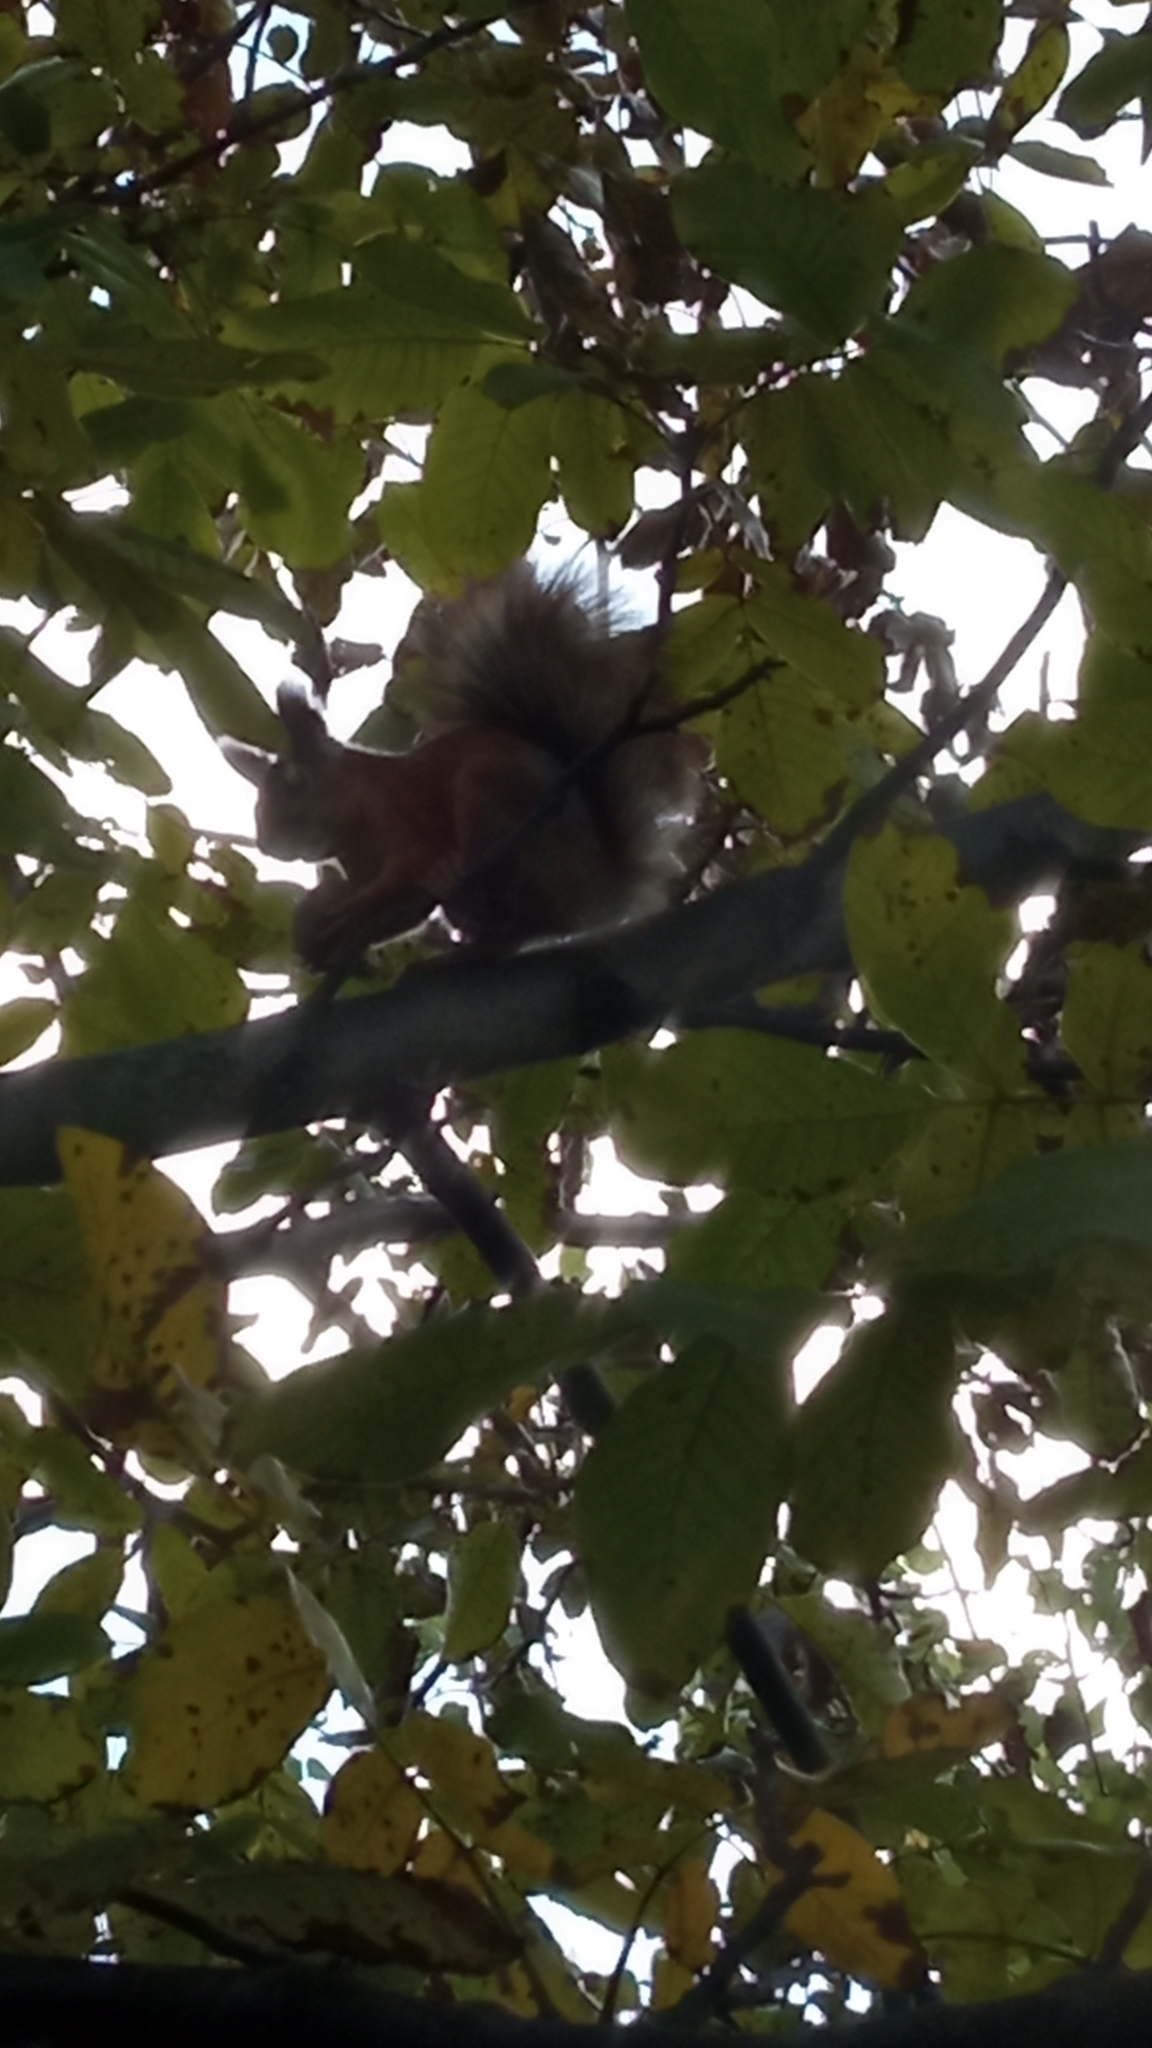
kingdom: Animalia
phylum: Chordata
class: Mammalia
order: Rodentia
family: Sciuridae
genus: Sciurus
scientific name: Sciurus vulgaris
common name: Eurasian red squirrel
